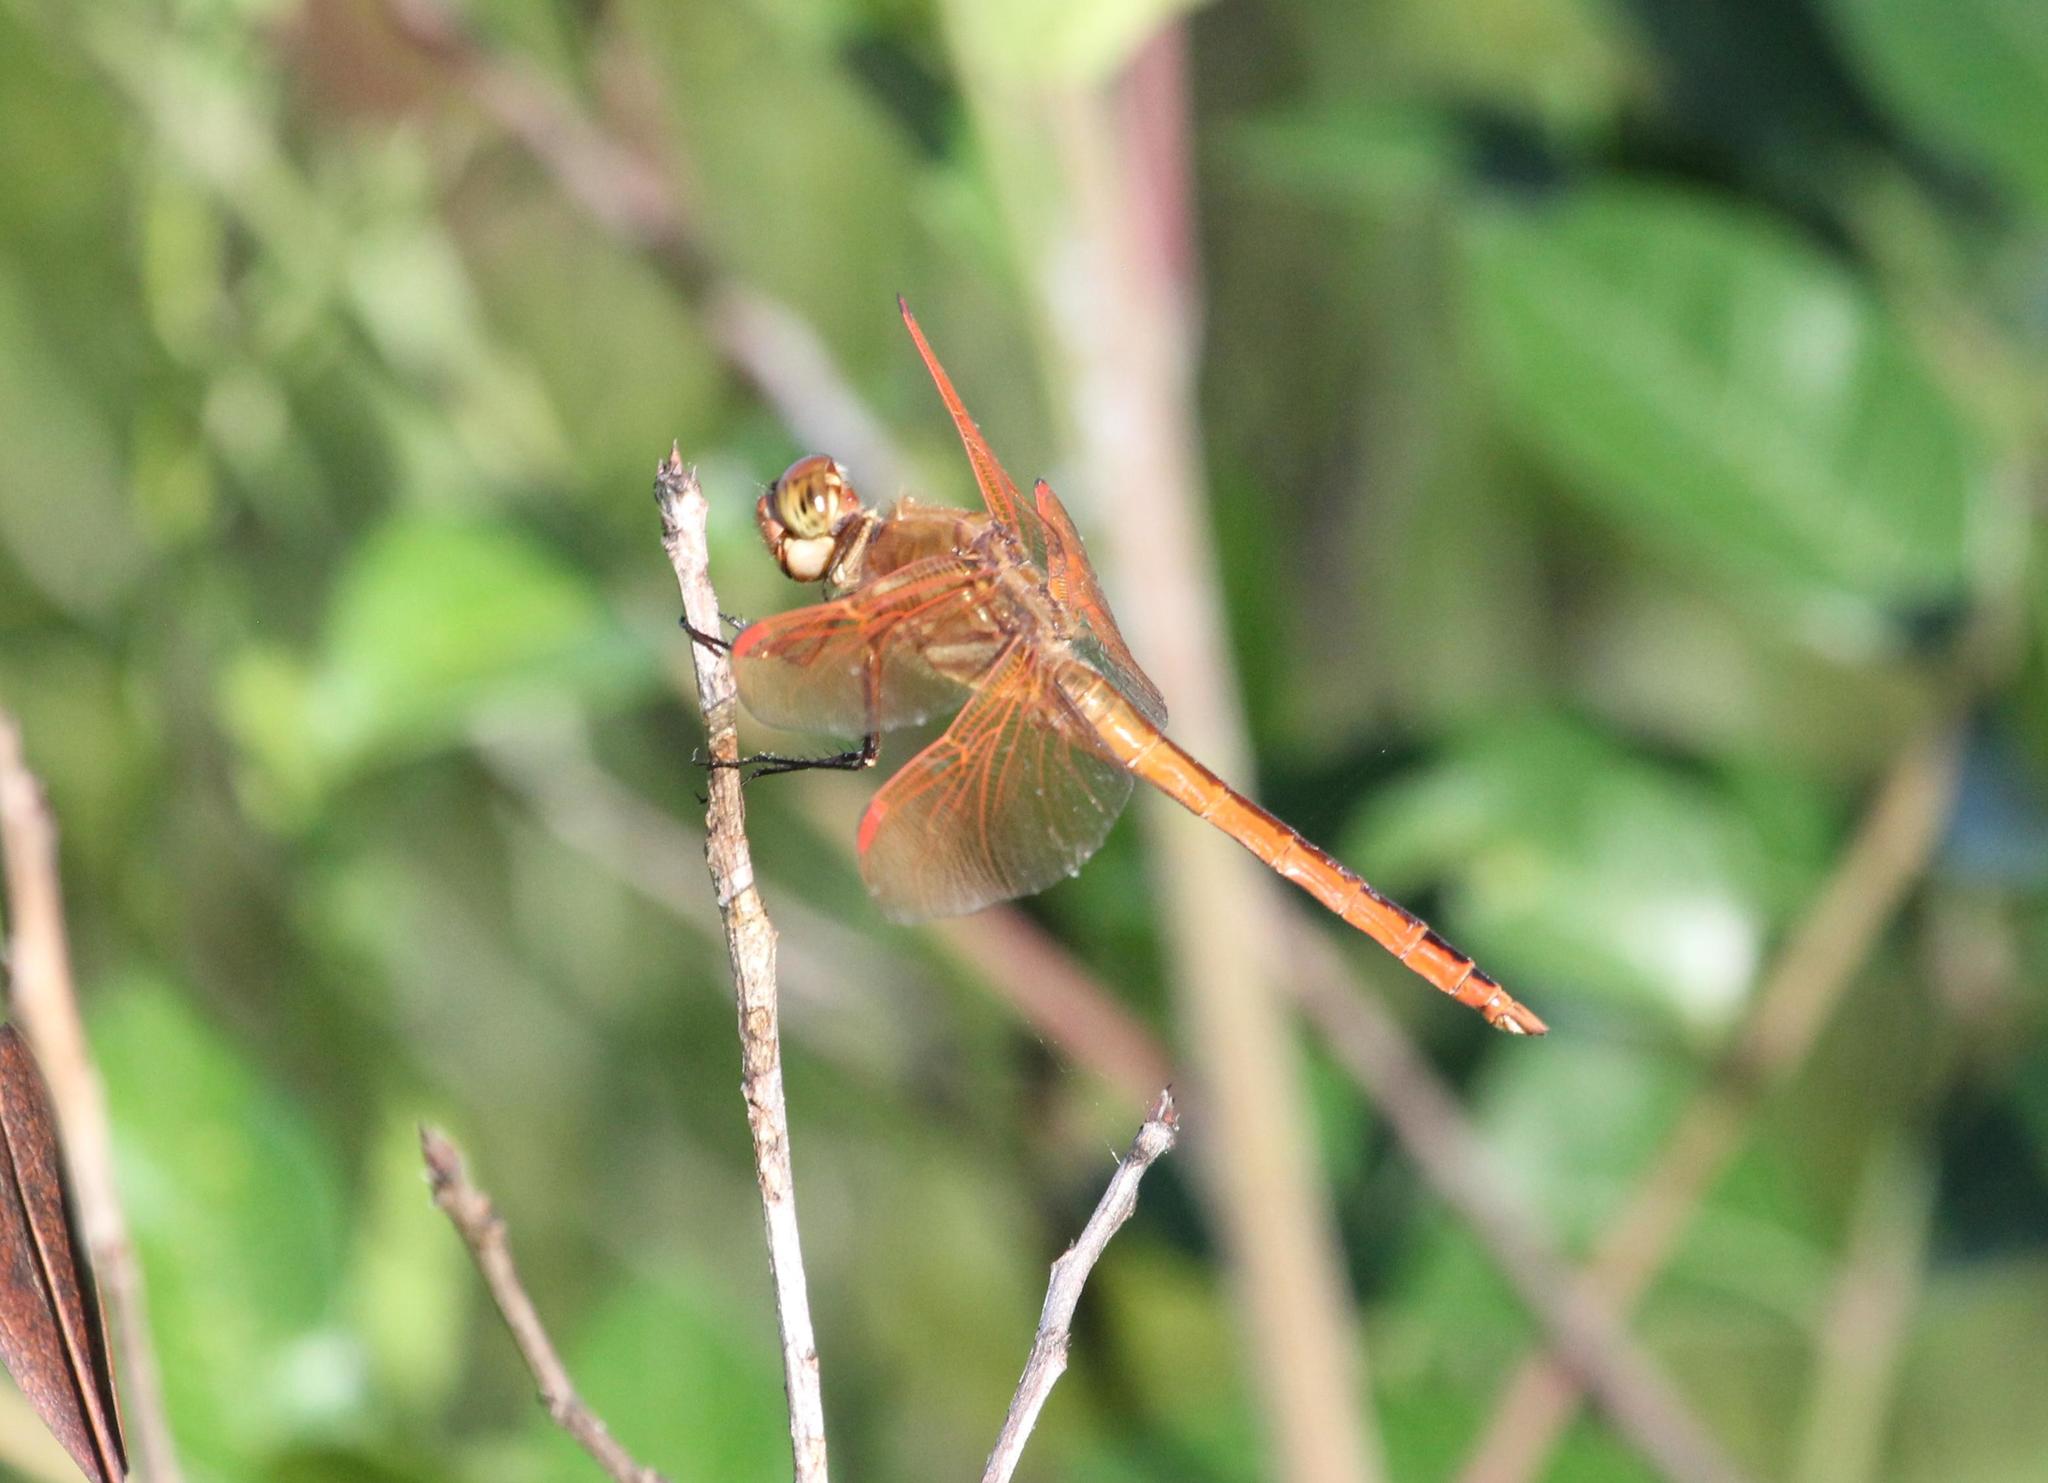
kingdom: Animalia
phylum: Arthropoda
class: Insecta
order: Odonata
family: Libellulidae
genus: Libellula
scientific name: Libellula auripennis
